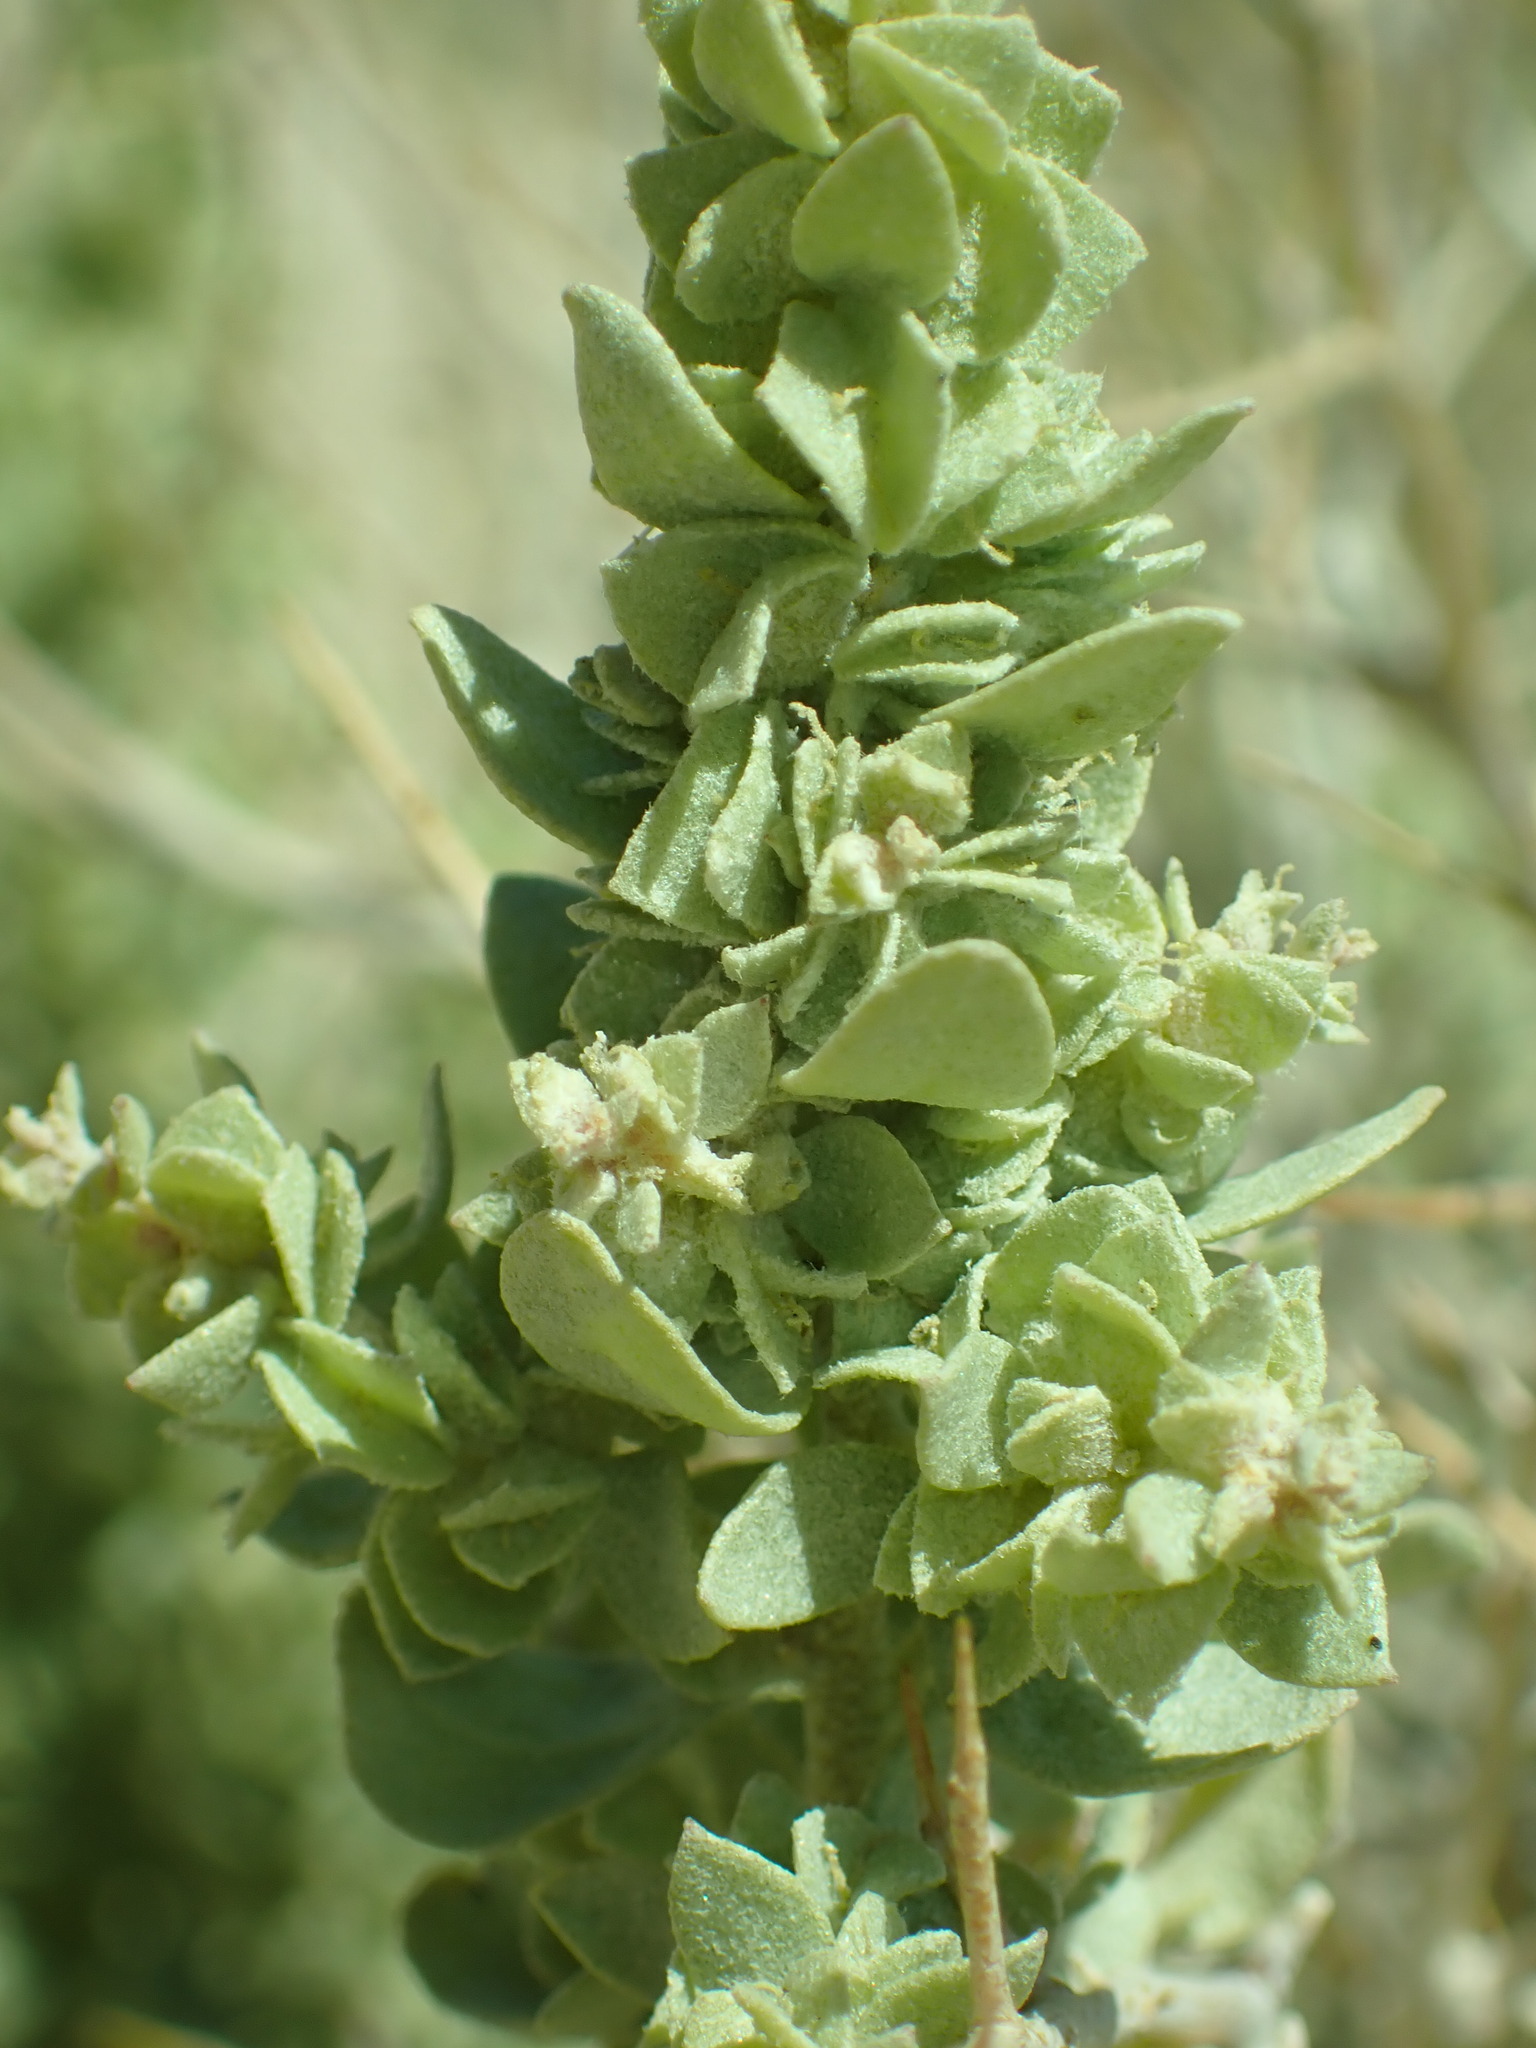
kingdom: Plantae
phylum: Tracheophyta
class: Magnoliopsida
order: Caryophyllales
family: Amaranthaceae
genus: Atriplex
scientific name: Atriplex confertifolia
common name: Shadscale
